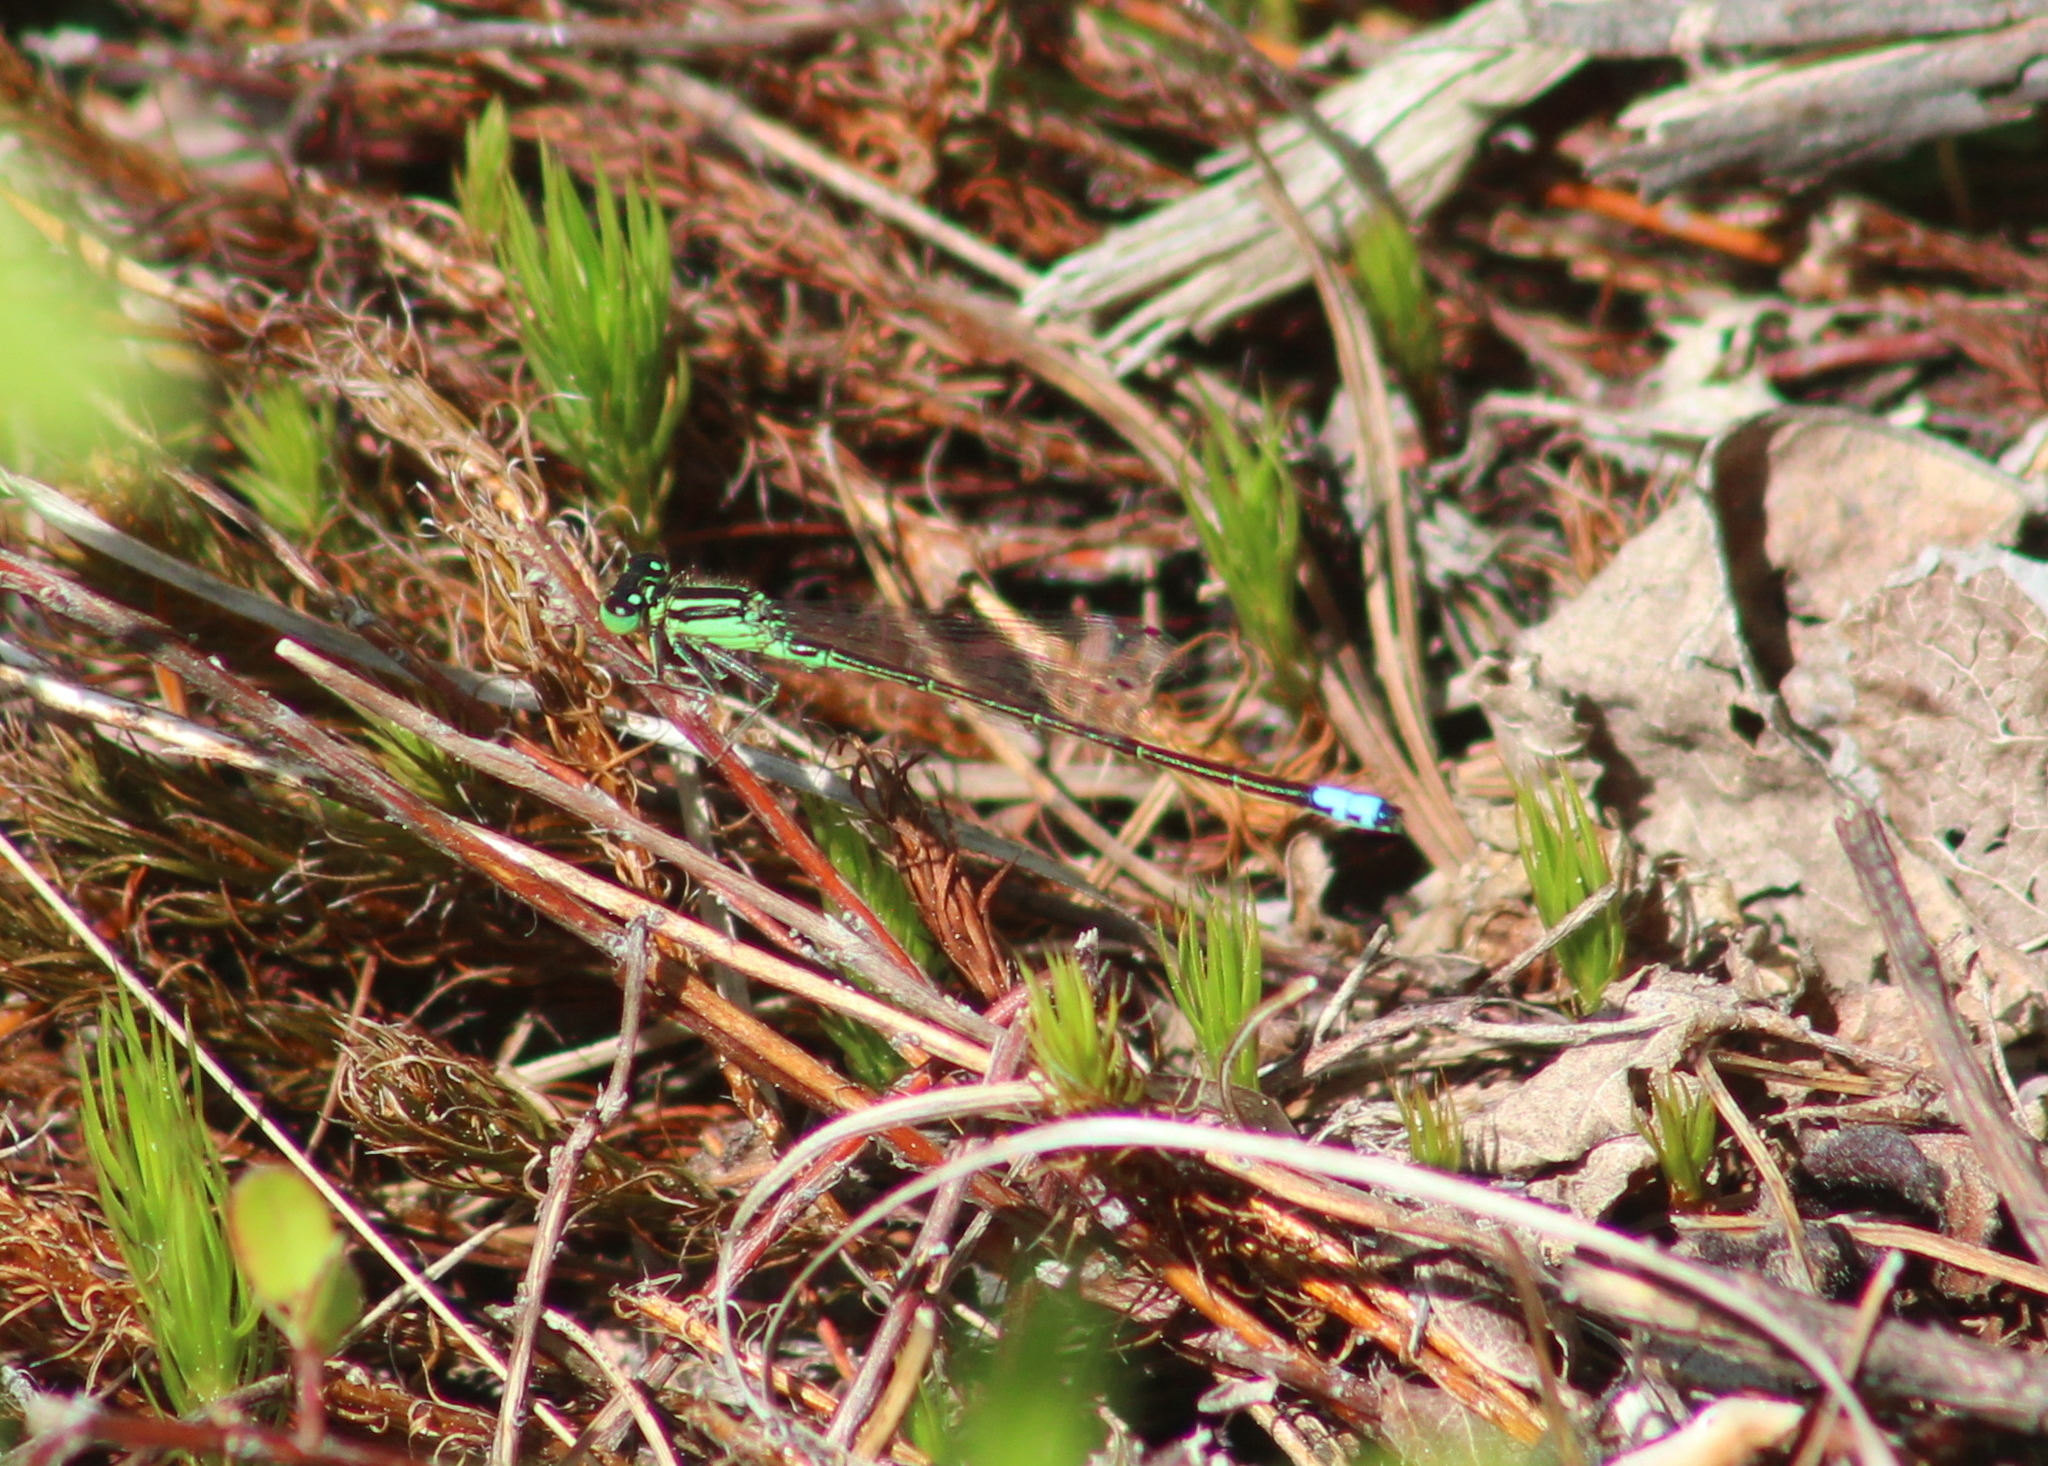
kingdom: Animalia
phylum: Arthropoda
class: Insecta
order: Odonata
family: Coenagrionidae
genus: Ischnura
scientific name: Ischnura verticalis
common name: Eastern forktail
